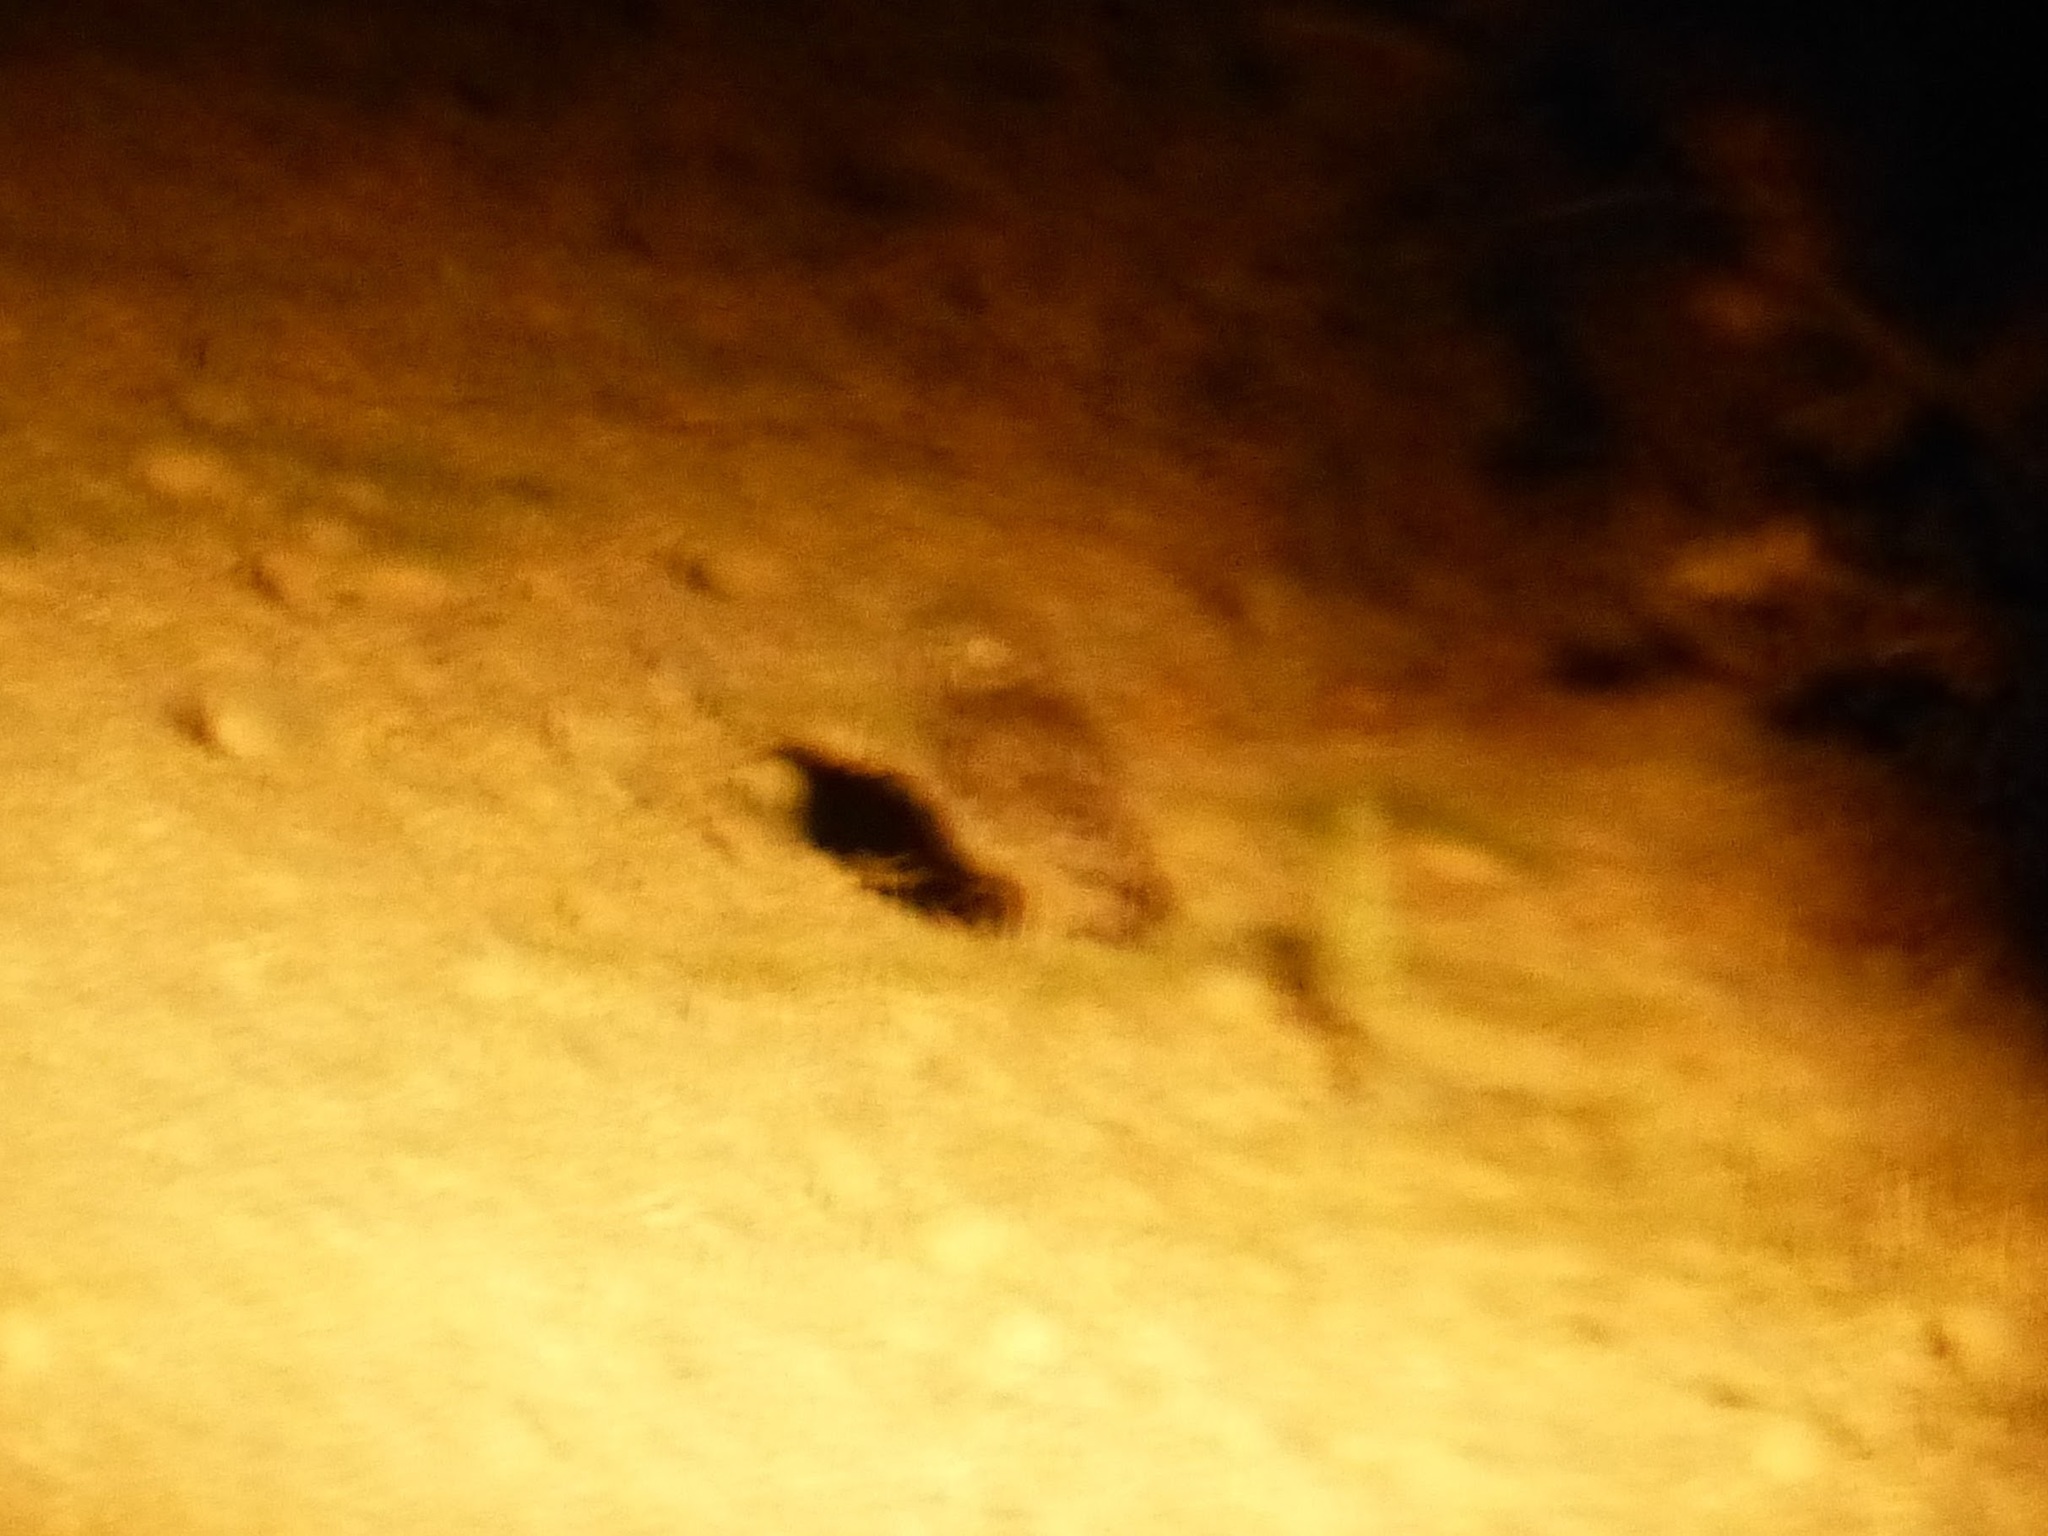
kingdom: Animalia
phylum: Chordata
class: Aves
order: Strigiformes
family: Strigidae
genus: Athene
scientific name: Athene noctua
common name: Little owl
